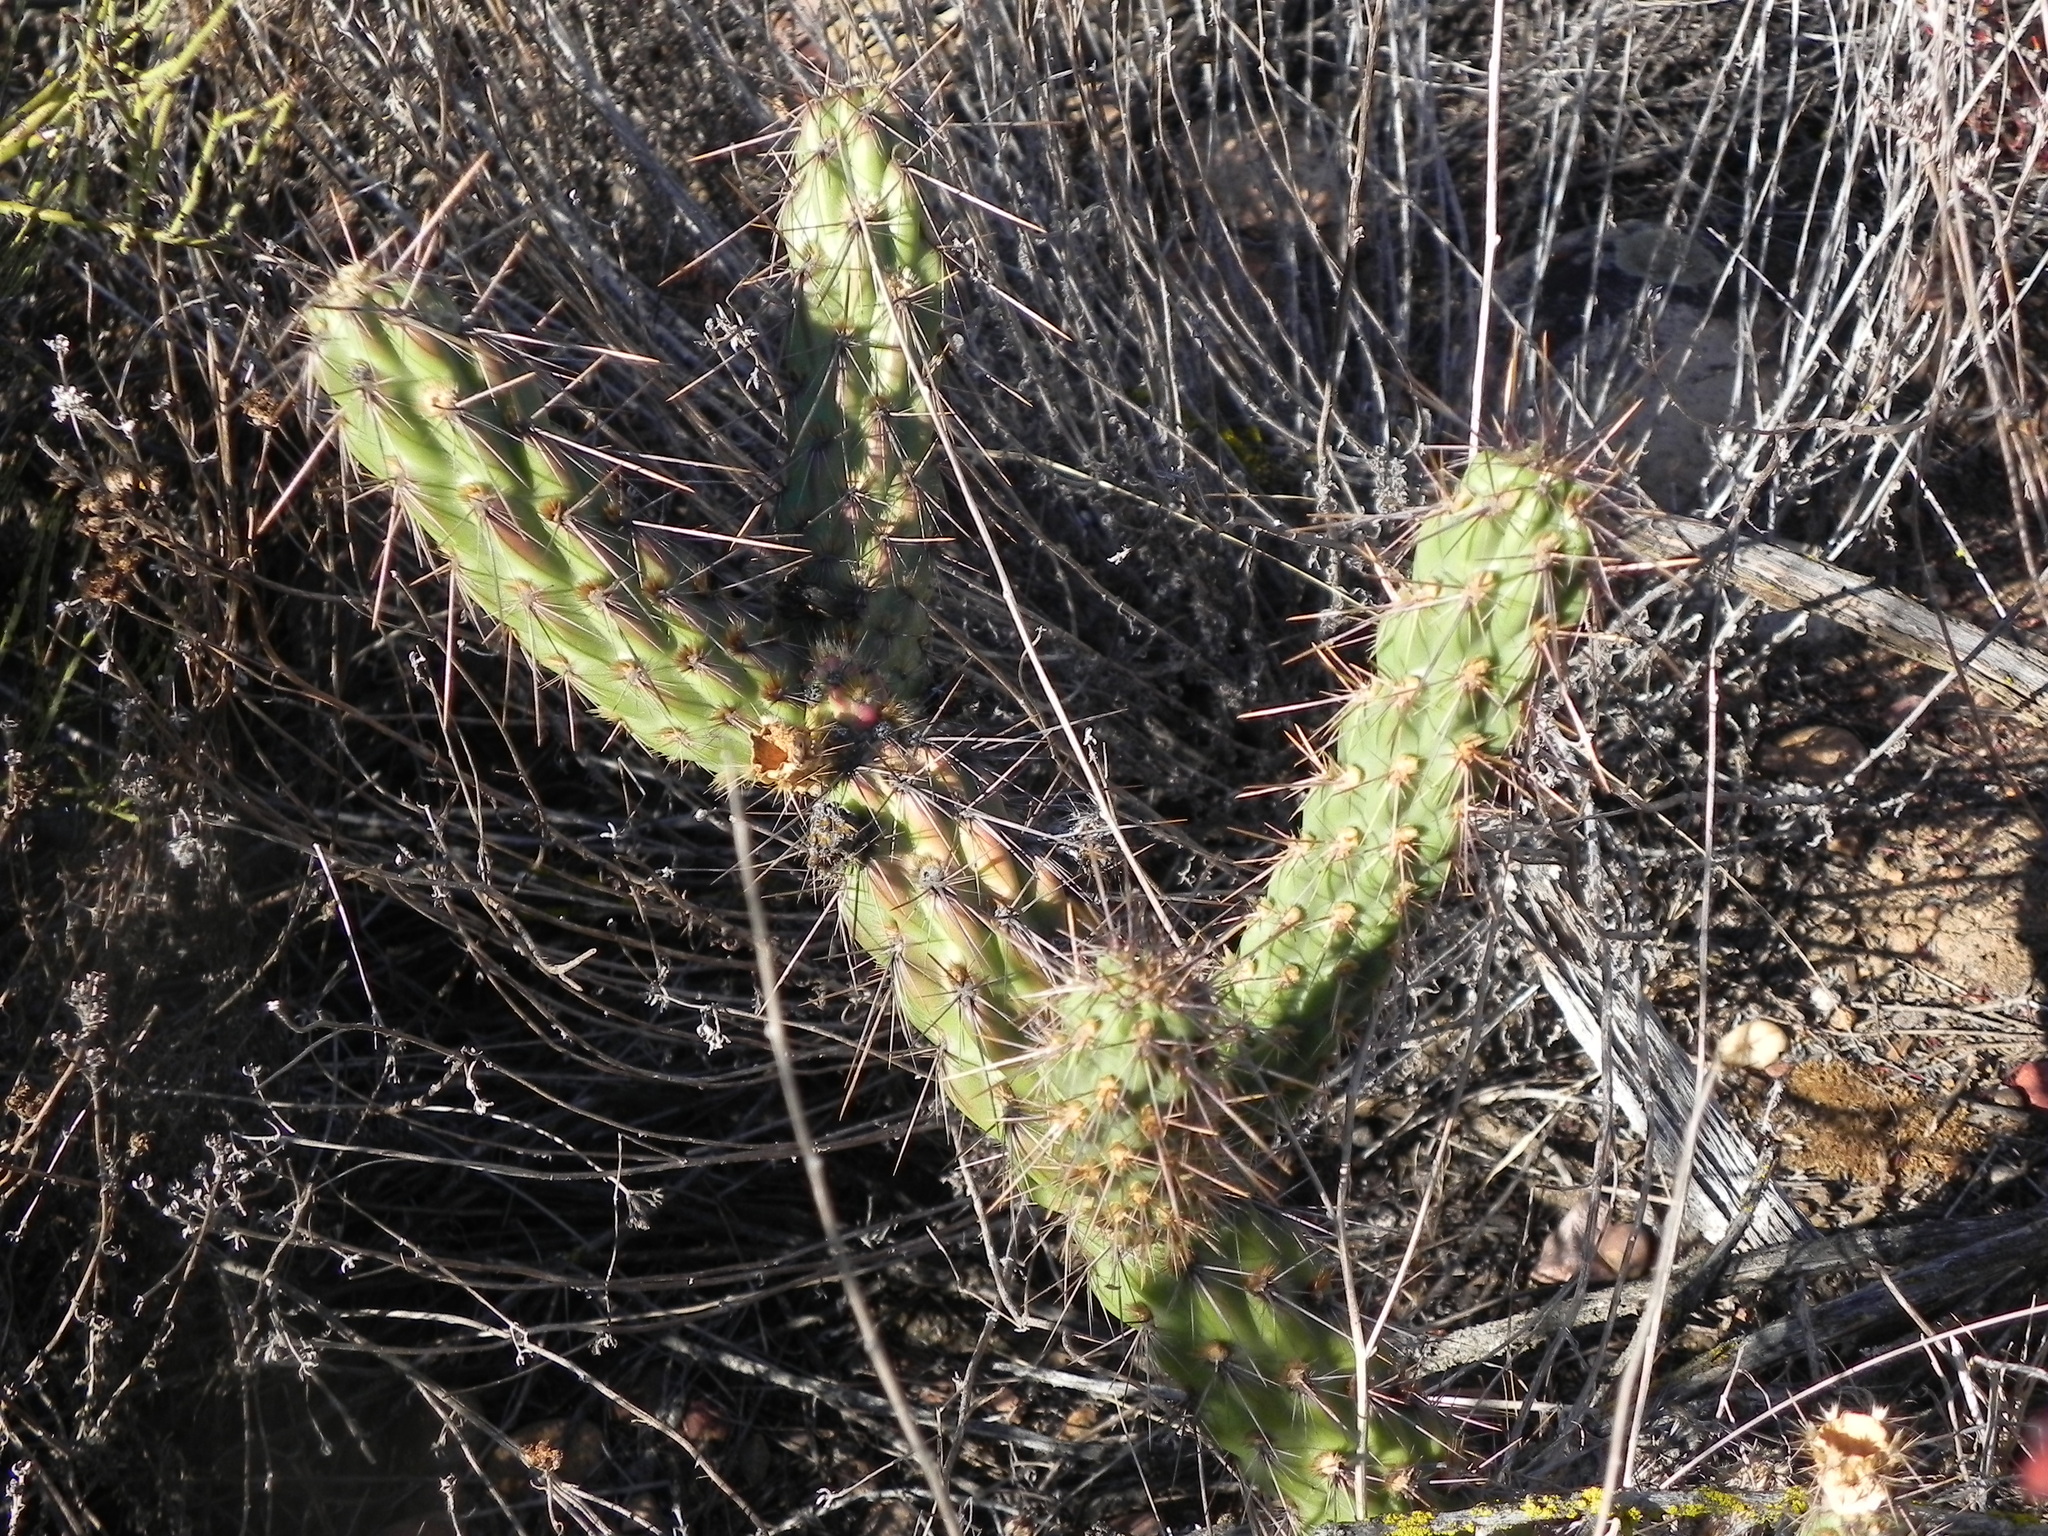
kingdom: Plantae
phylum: Tracheophyta
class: Magnoliopsida
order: Caryophyllales
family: Cactaceae
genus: Cylindropuntia
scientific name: Cylindropuntia californica
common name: Snake cholla
